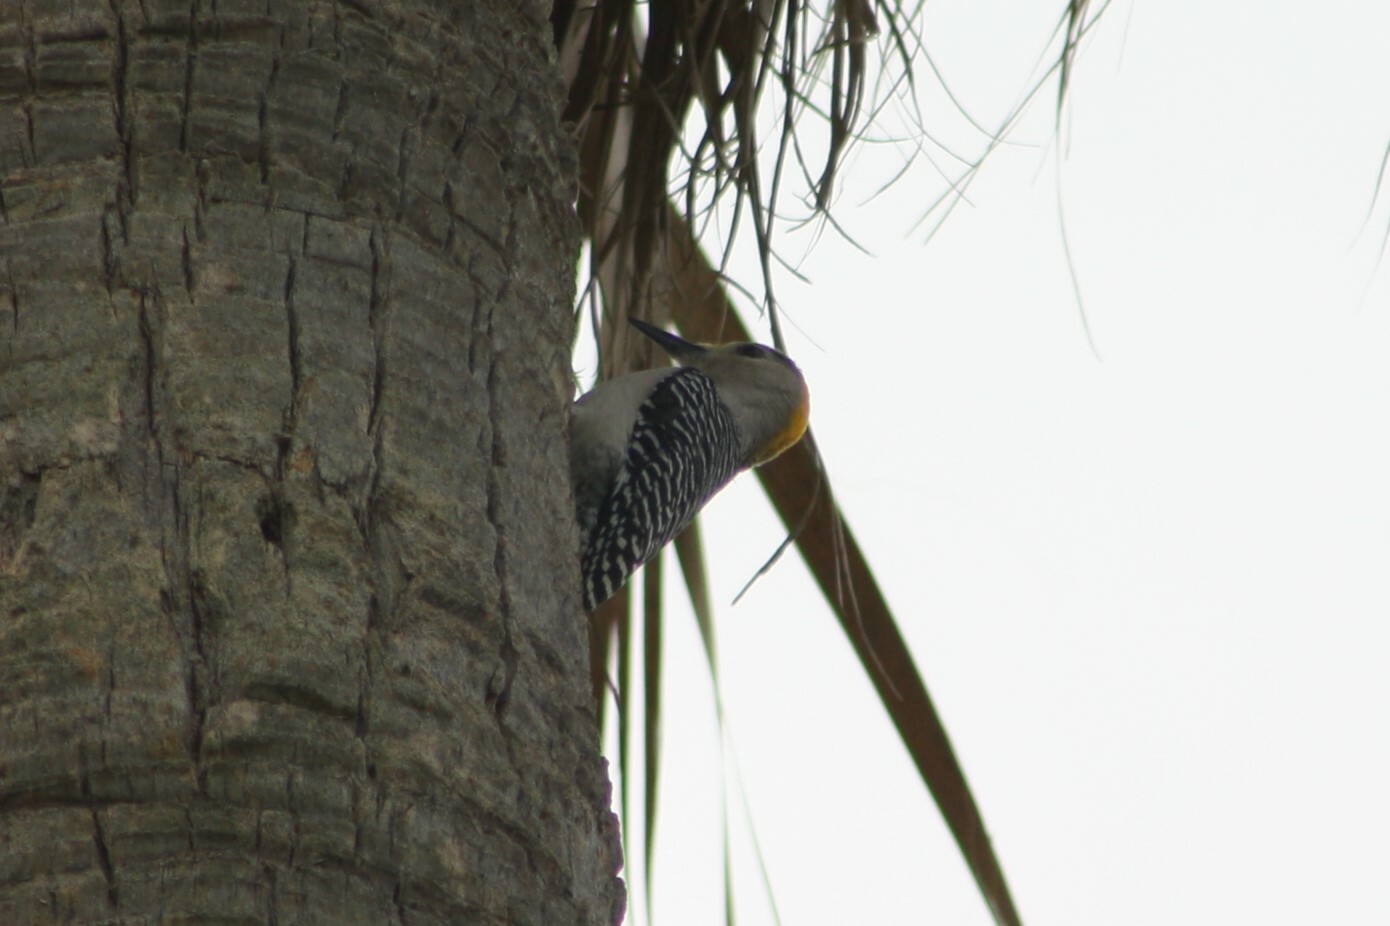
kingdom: Animalia
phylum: Chordata
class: Aves
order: Piciformes
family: Picidae
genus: Melanerpes
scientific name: Melanerpes aurifrons
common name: Golden-fronted woodpecker
